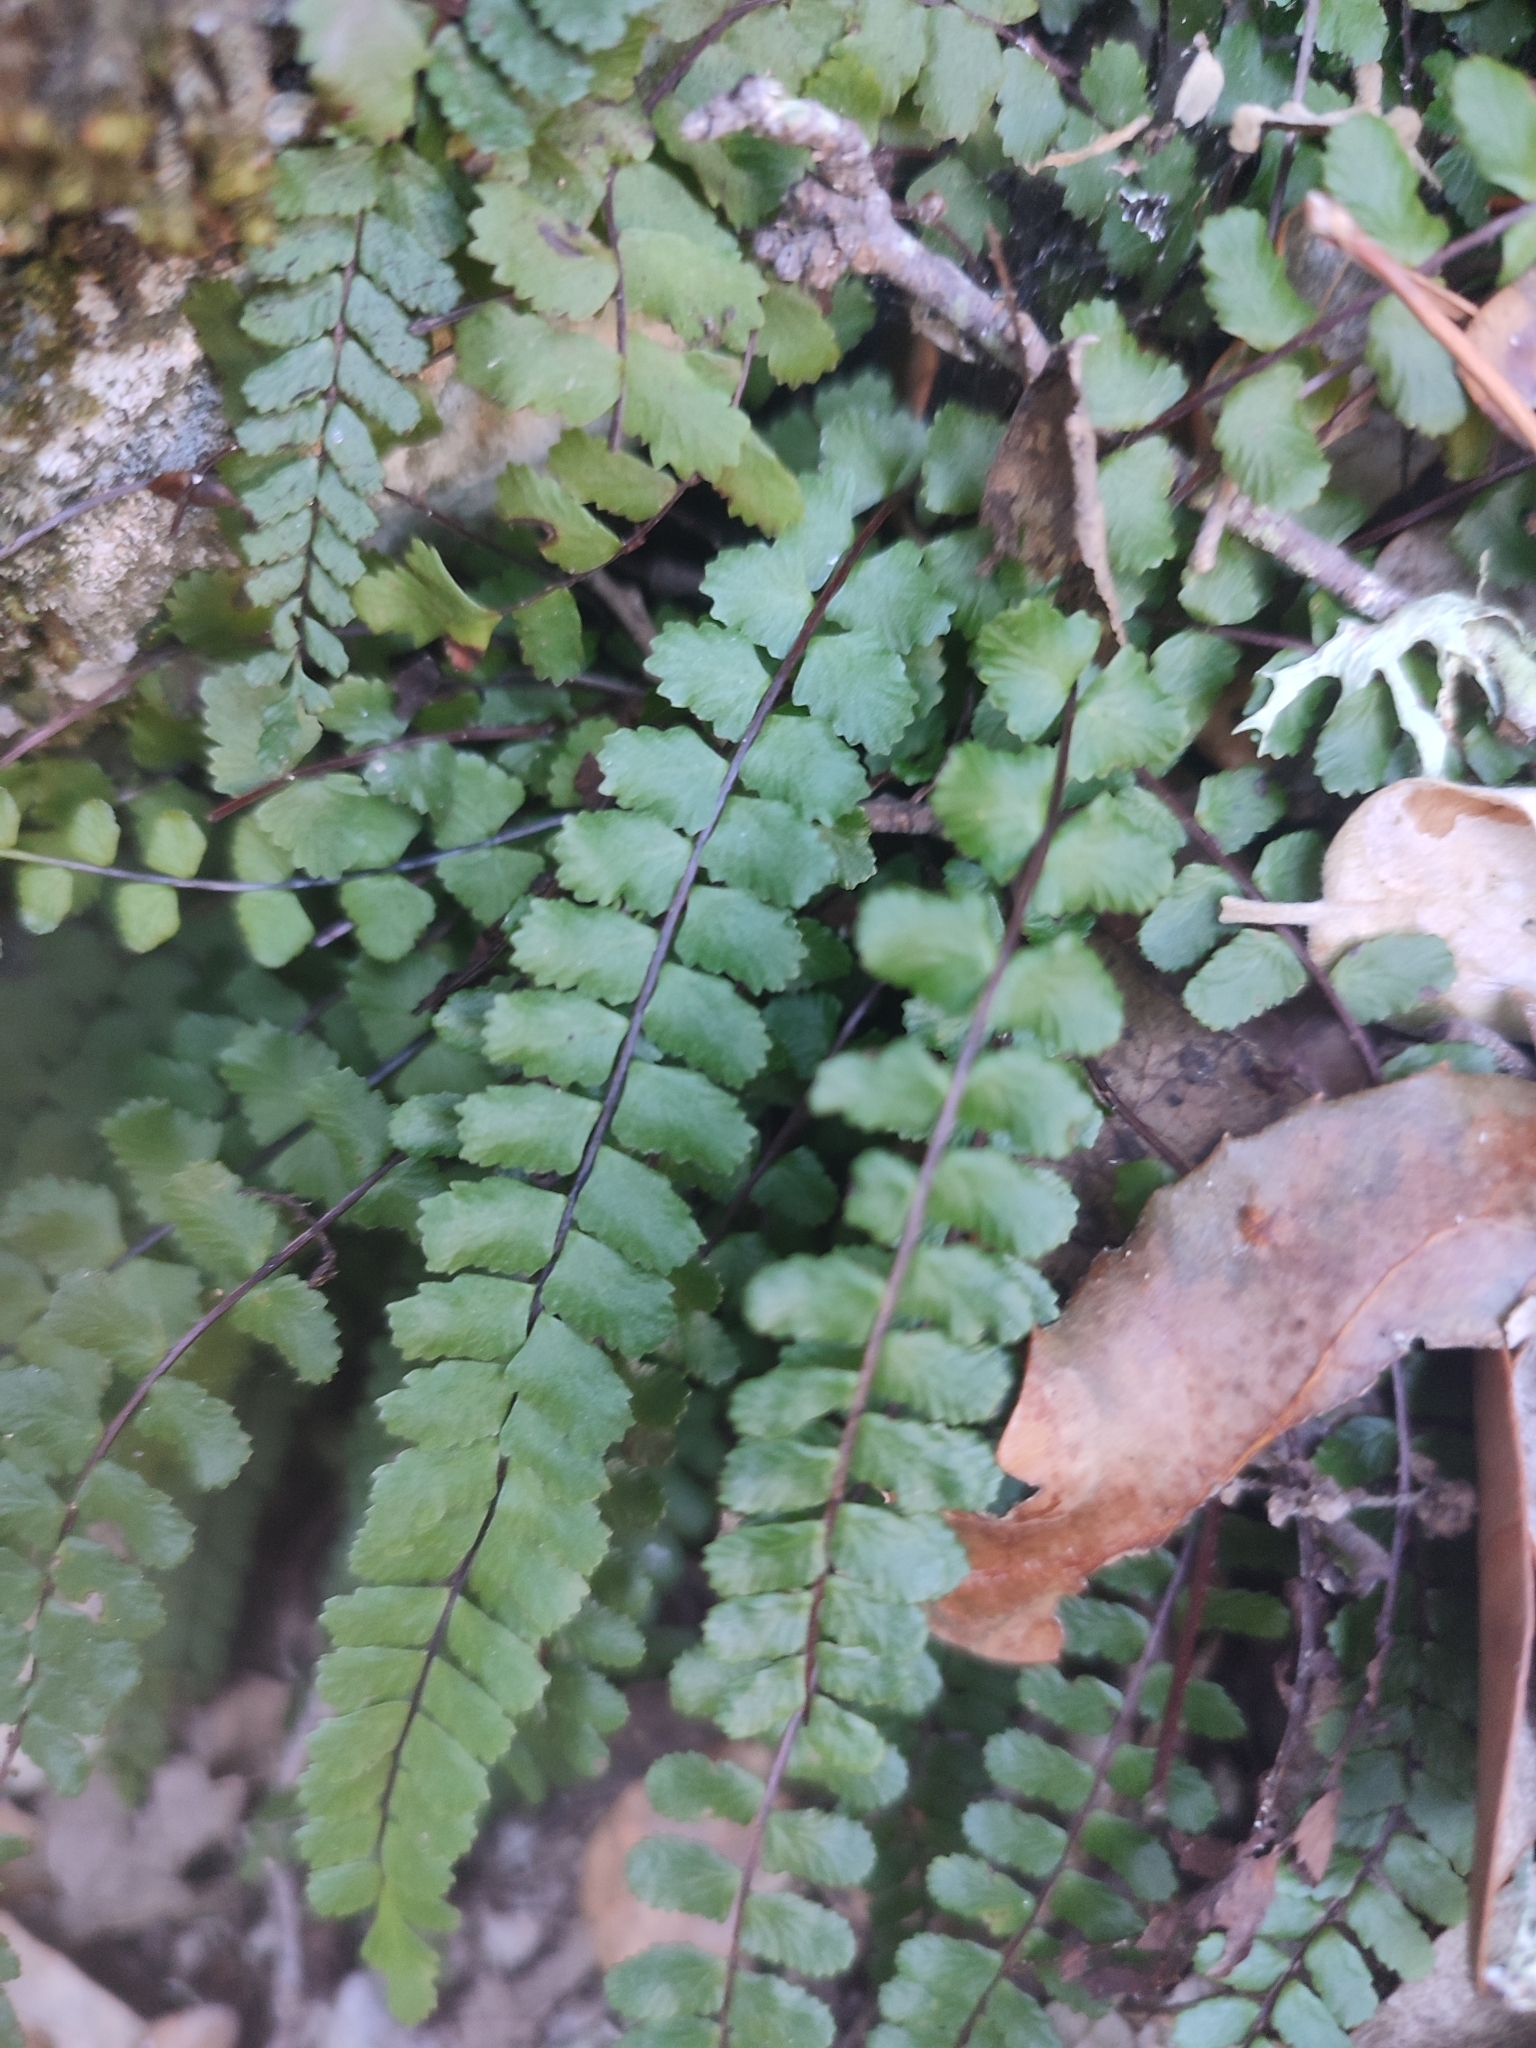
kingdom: Plantae
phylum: Tracheophyta
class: Polypodiopsida
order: Polypodiales
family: Aspleniaceae
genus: Asplenium
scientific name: Asplenium trichomanes
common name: Maidenhair spleenwort
